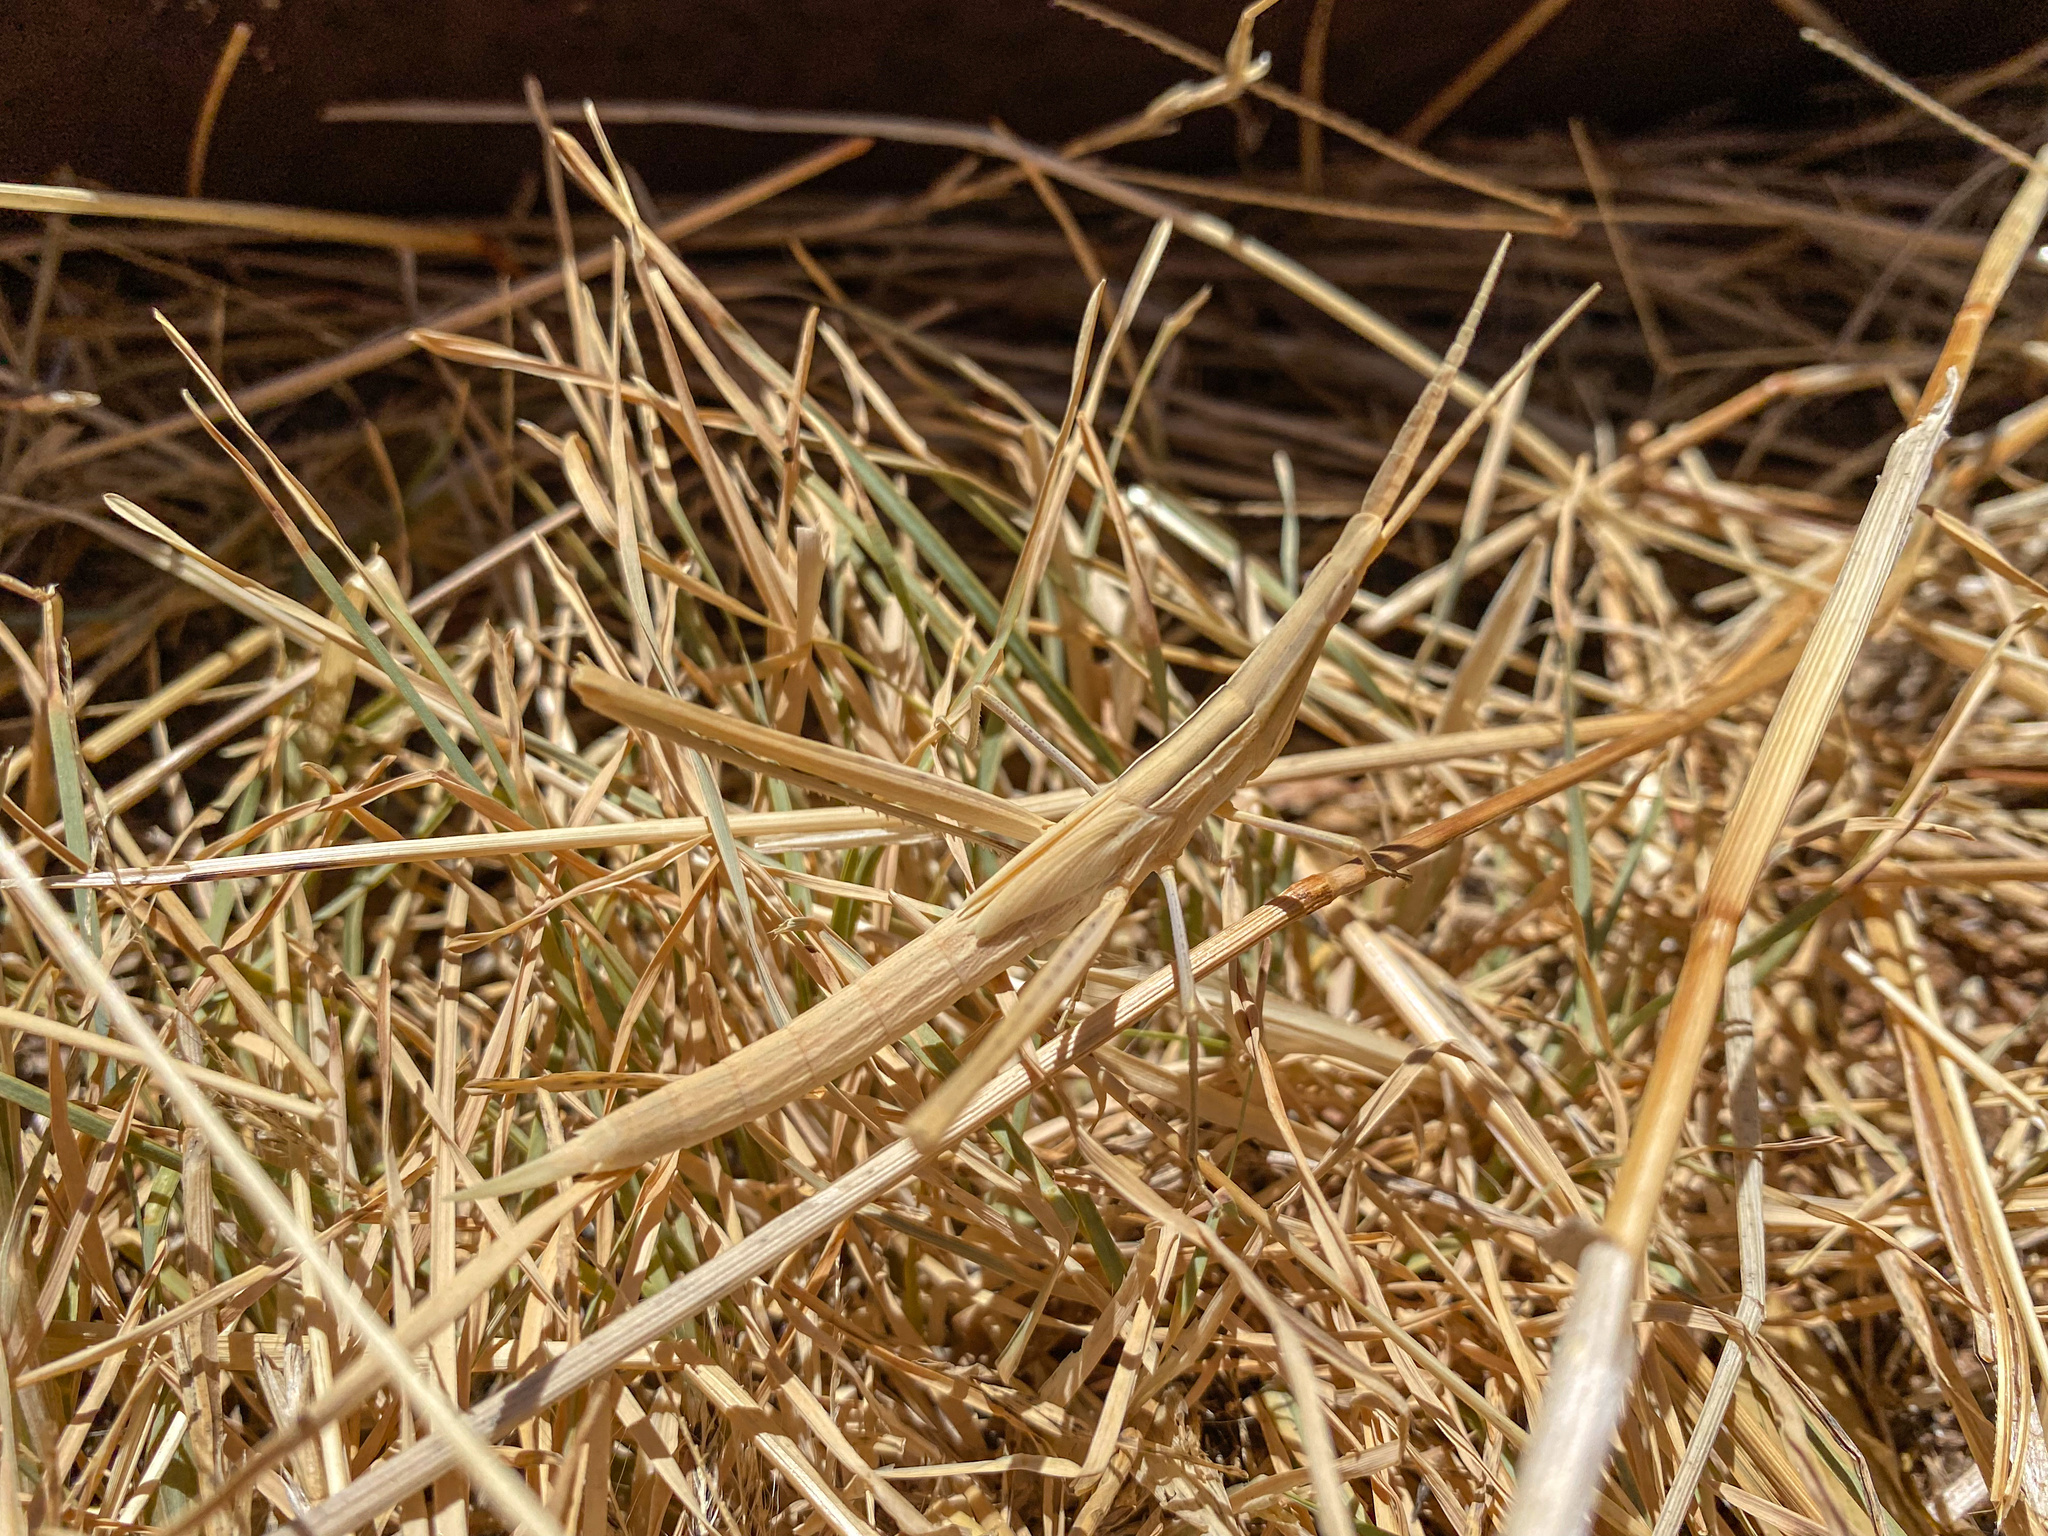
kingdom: Animalia
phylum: Arthropoda
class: Insecta
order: Orthoptera
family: Acrididae
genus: Acrida
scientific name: Acrida conica
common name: Giant green slantface
